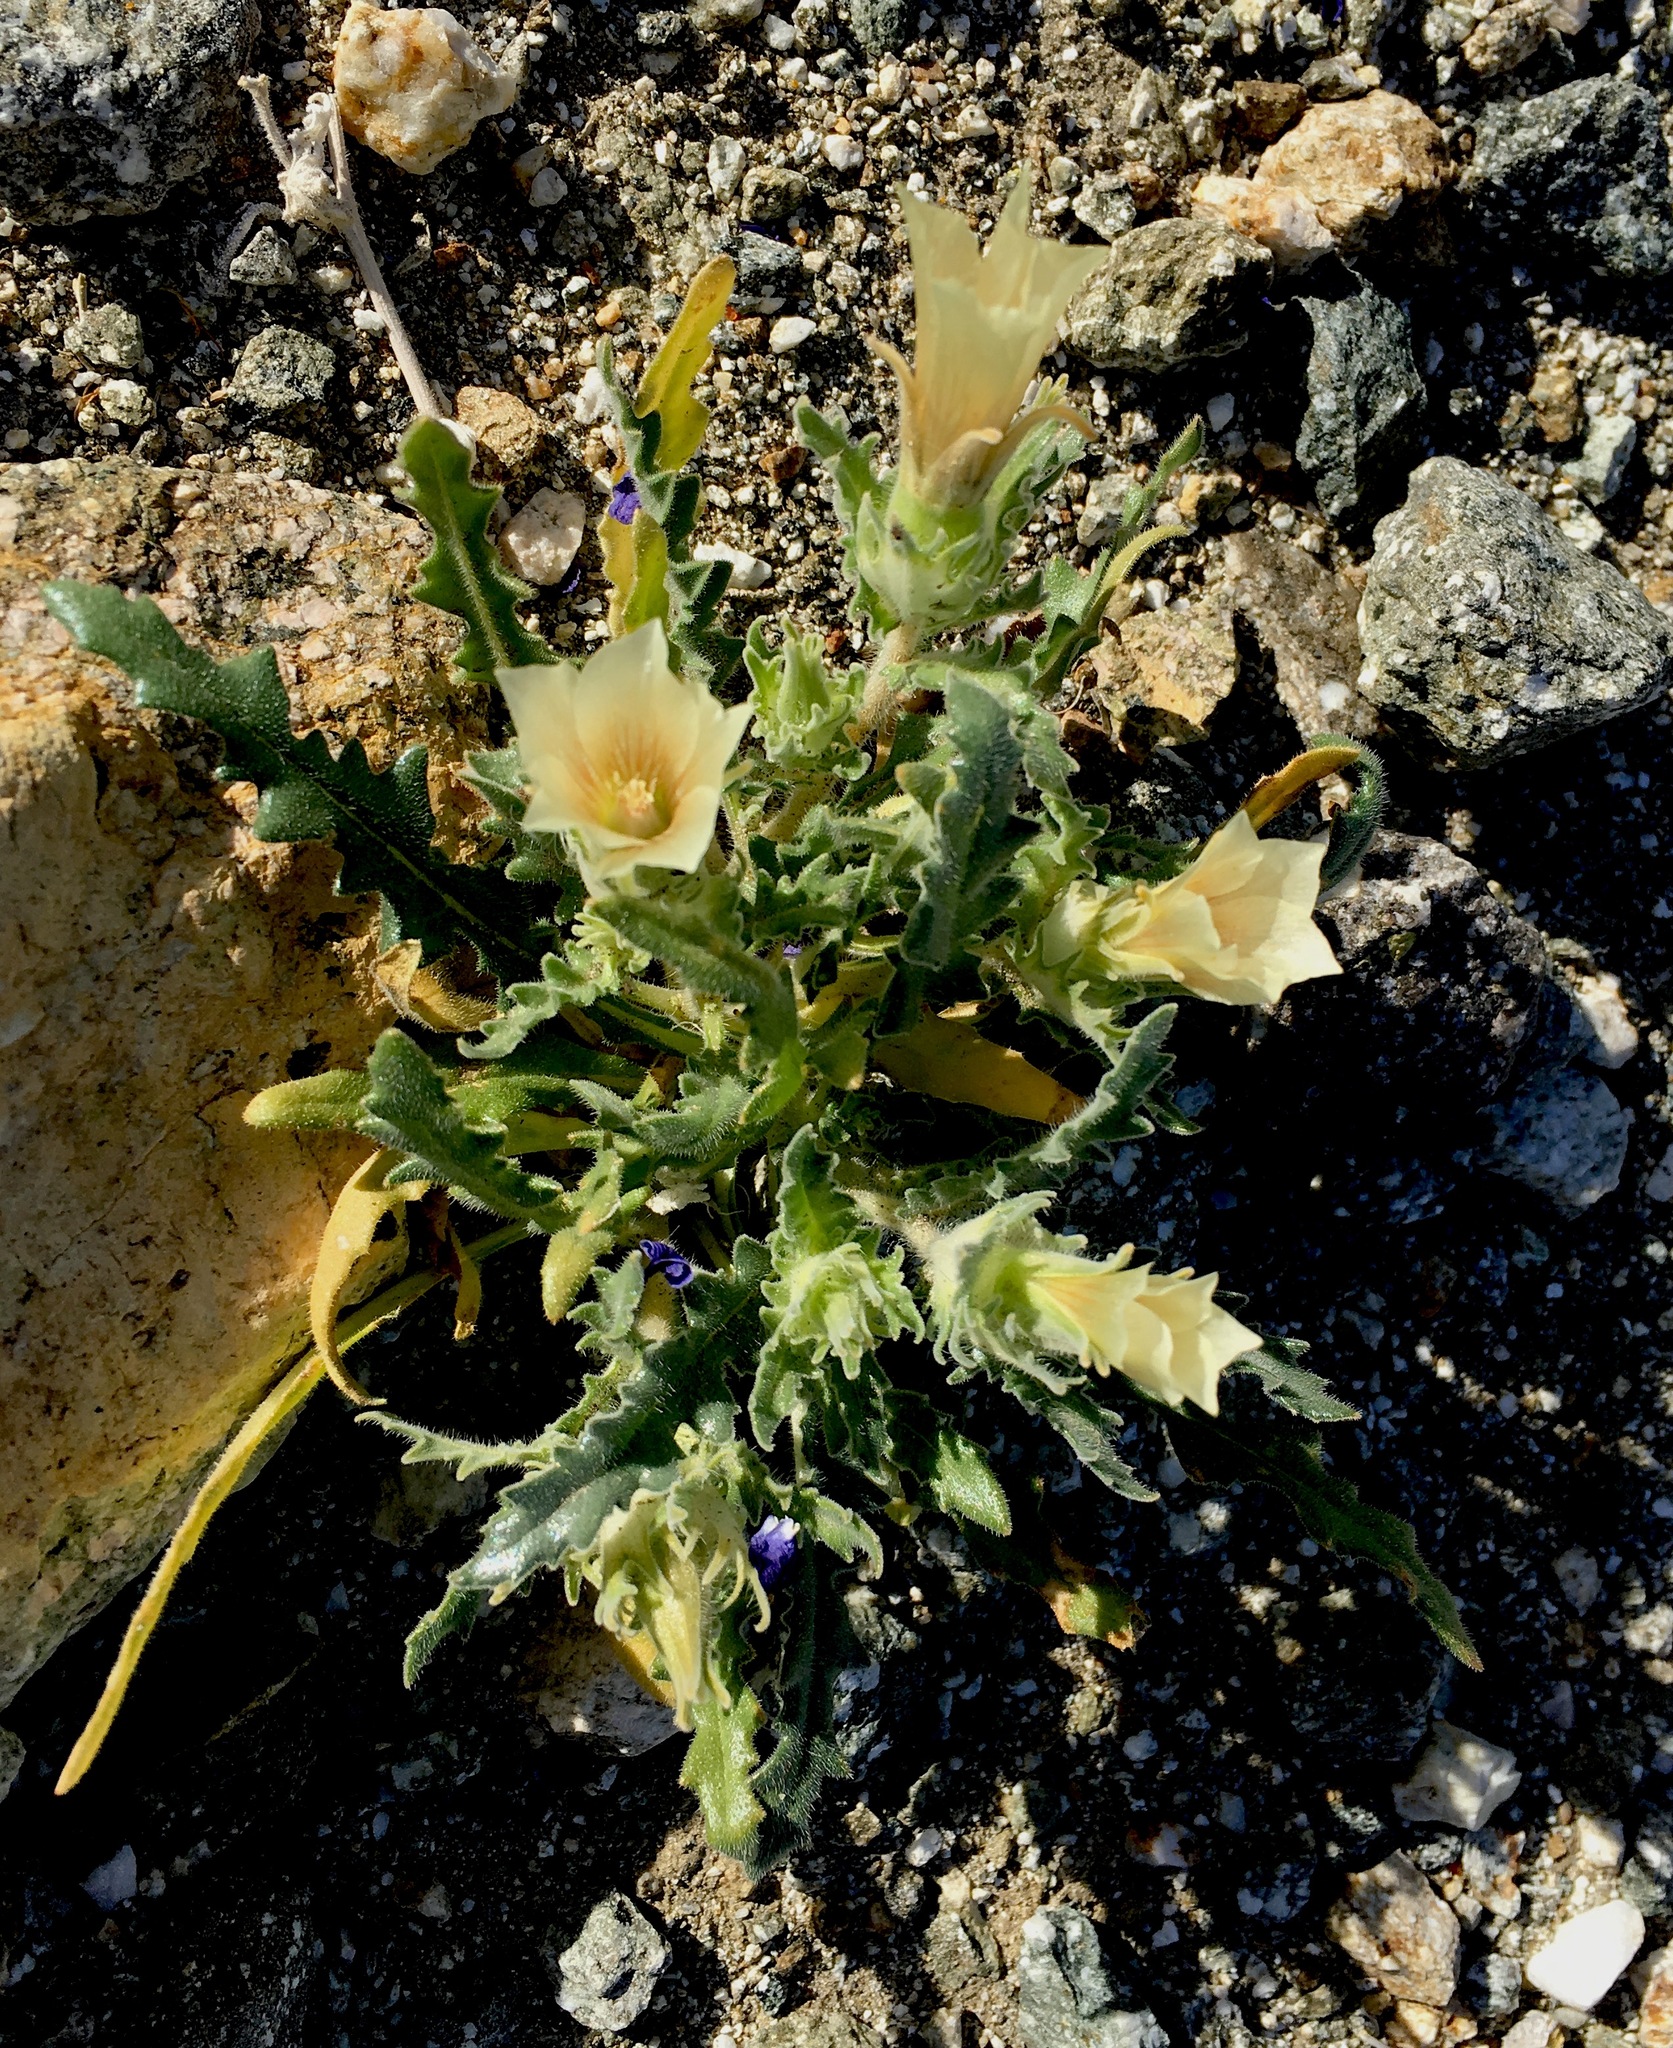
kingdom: Plantae
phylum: Tracheophyta
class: Magnoliopsida
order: Cornales
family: Loasaceae
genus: Mentzelia
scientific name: Mentzelia involucrata
